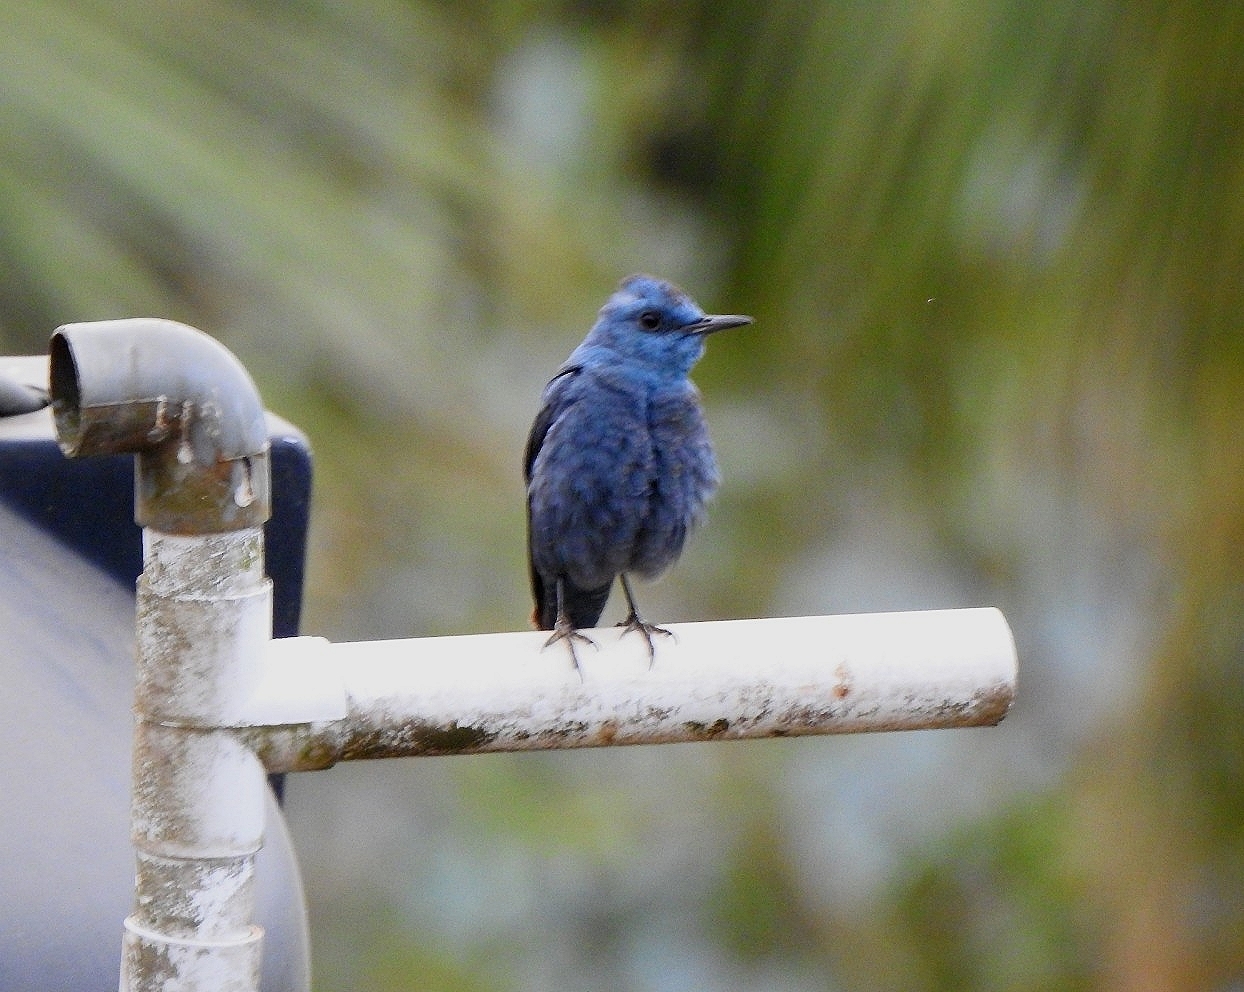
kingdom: Animalia
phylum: Chordata
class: Aves
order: Passeriformes
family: Muscicapidae
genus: Monticola
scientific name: Monticola solitarius
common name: Blue rock thrush
